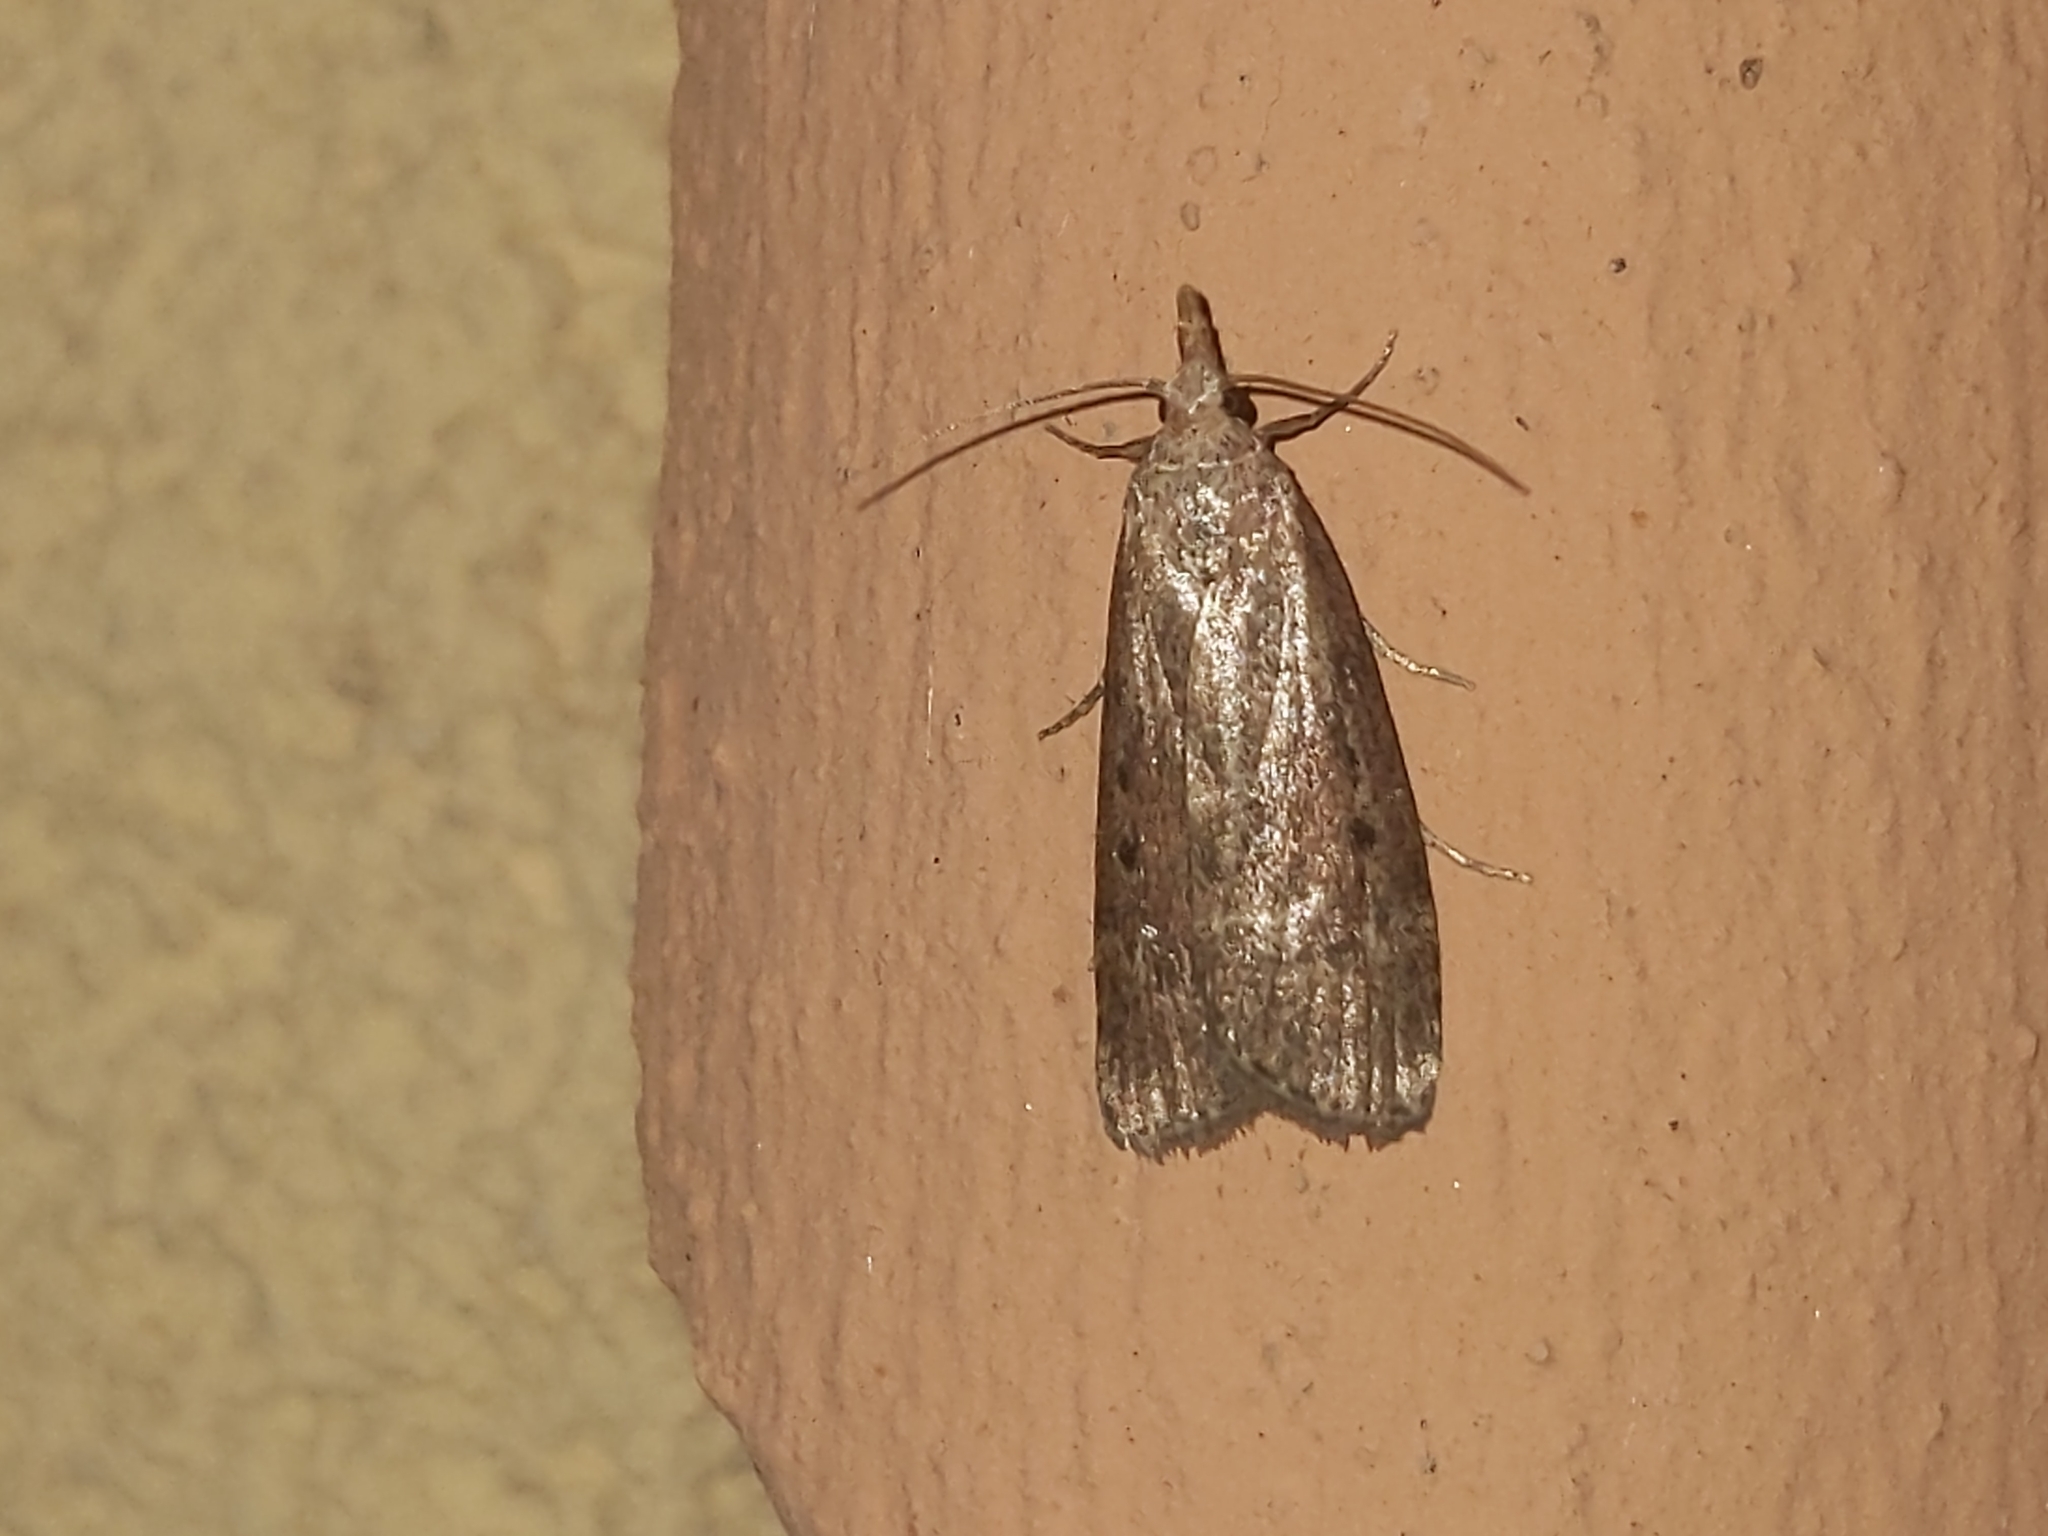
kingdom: Animalia
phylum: Arthropoda
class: Insecta
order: Lepidoptera
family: Pyralidae
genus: Aphomia
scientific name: Aphomia sociella
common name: Bee moth
